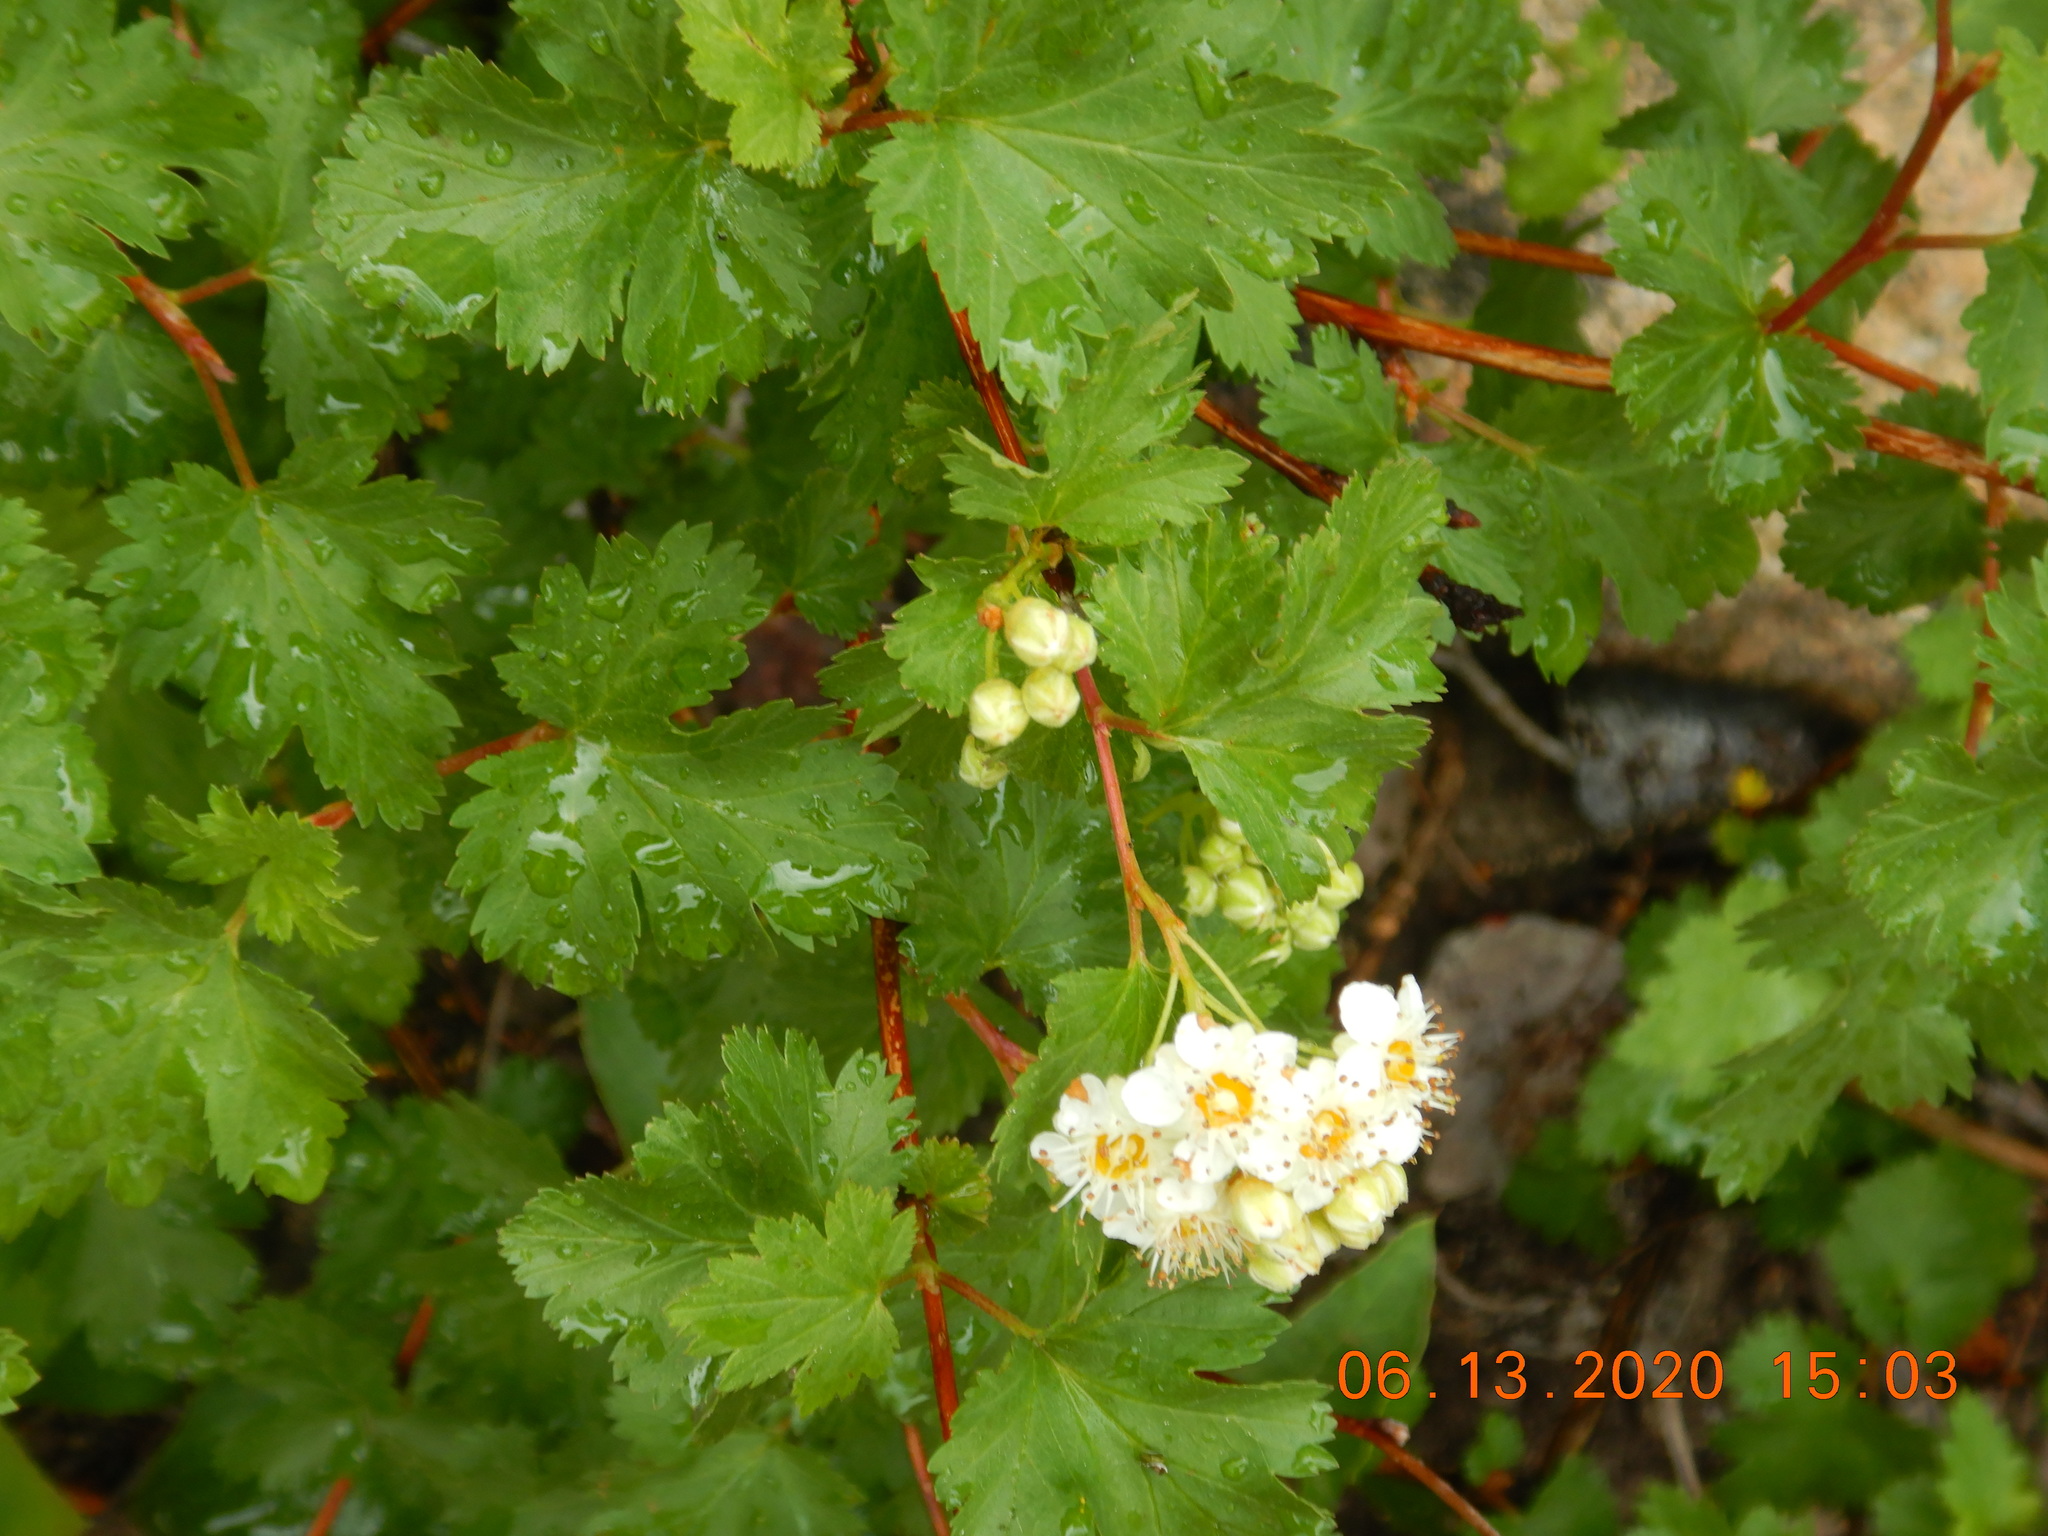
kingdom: Plantae
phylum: Tracheophyta
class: Magnoliopsida
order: Rosales
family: Rosaceae
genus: Physocarpus
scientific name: Physocarpus monogynus
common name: Mountain ninebark
